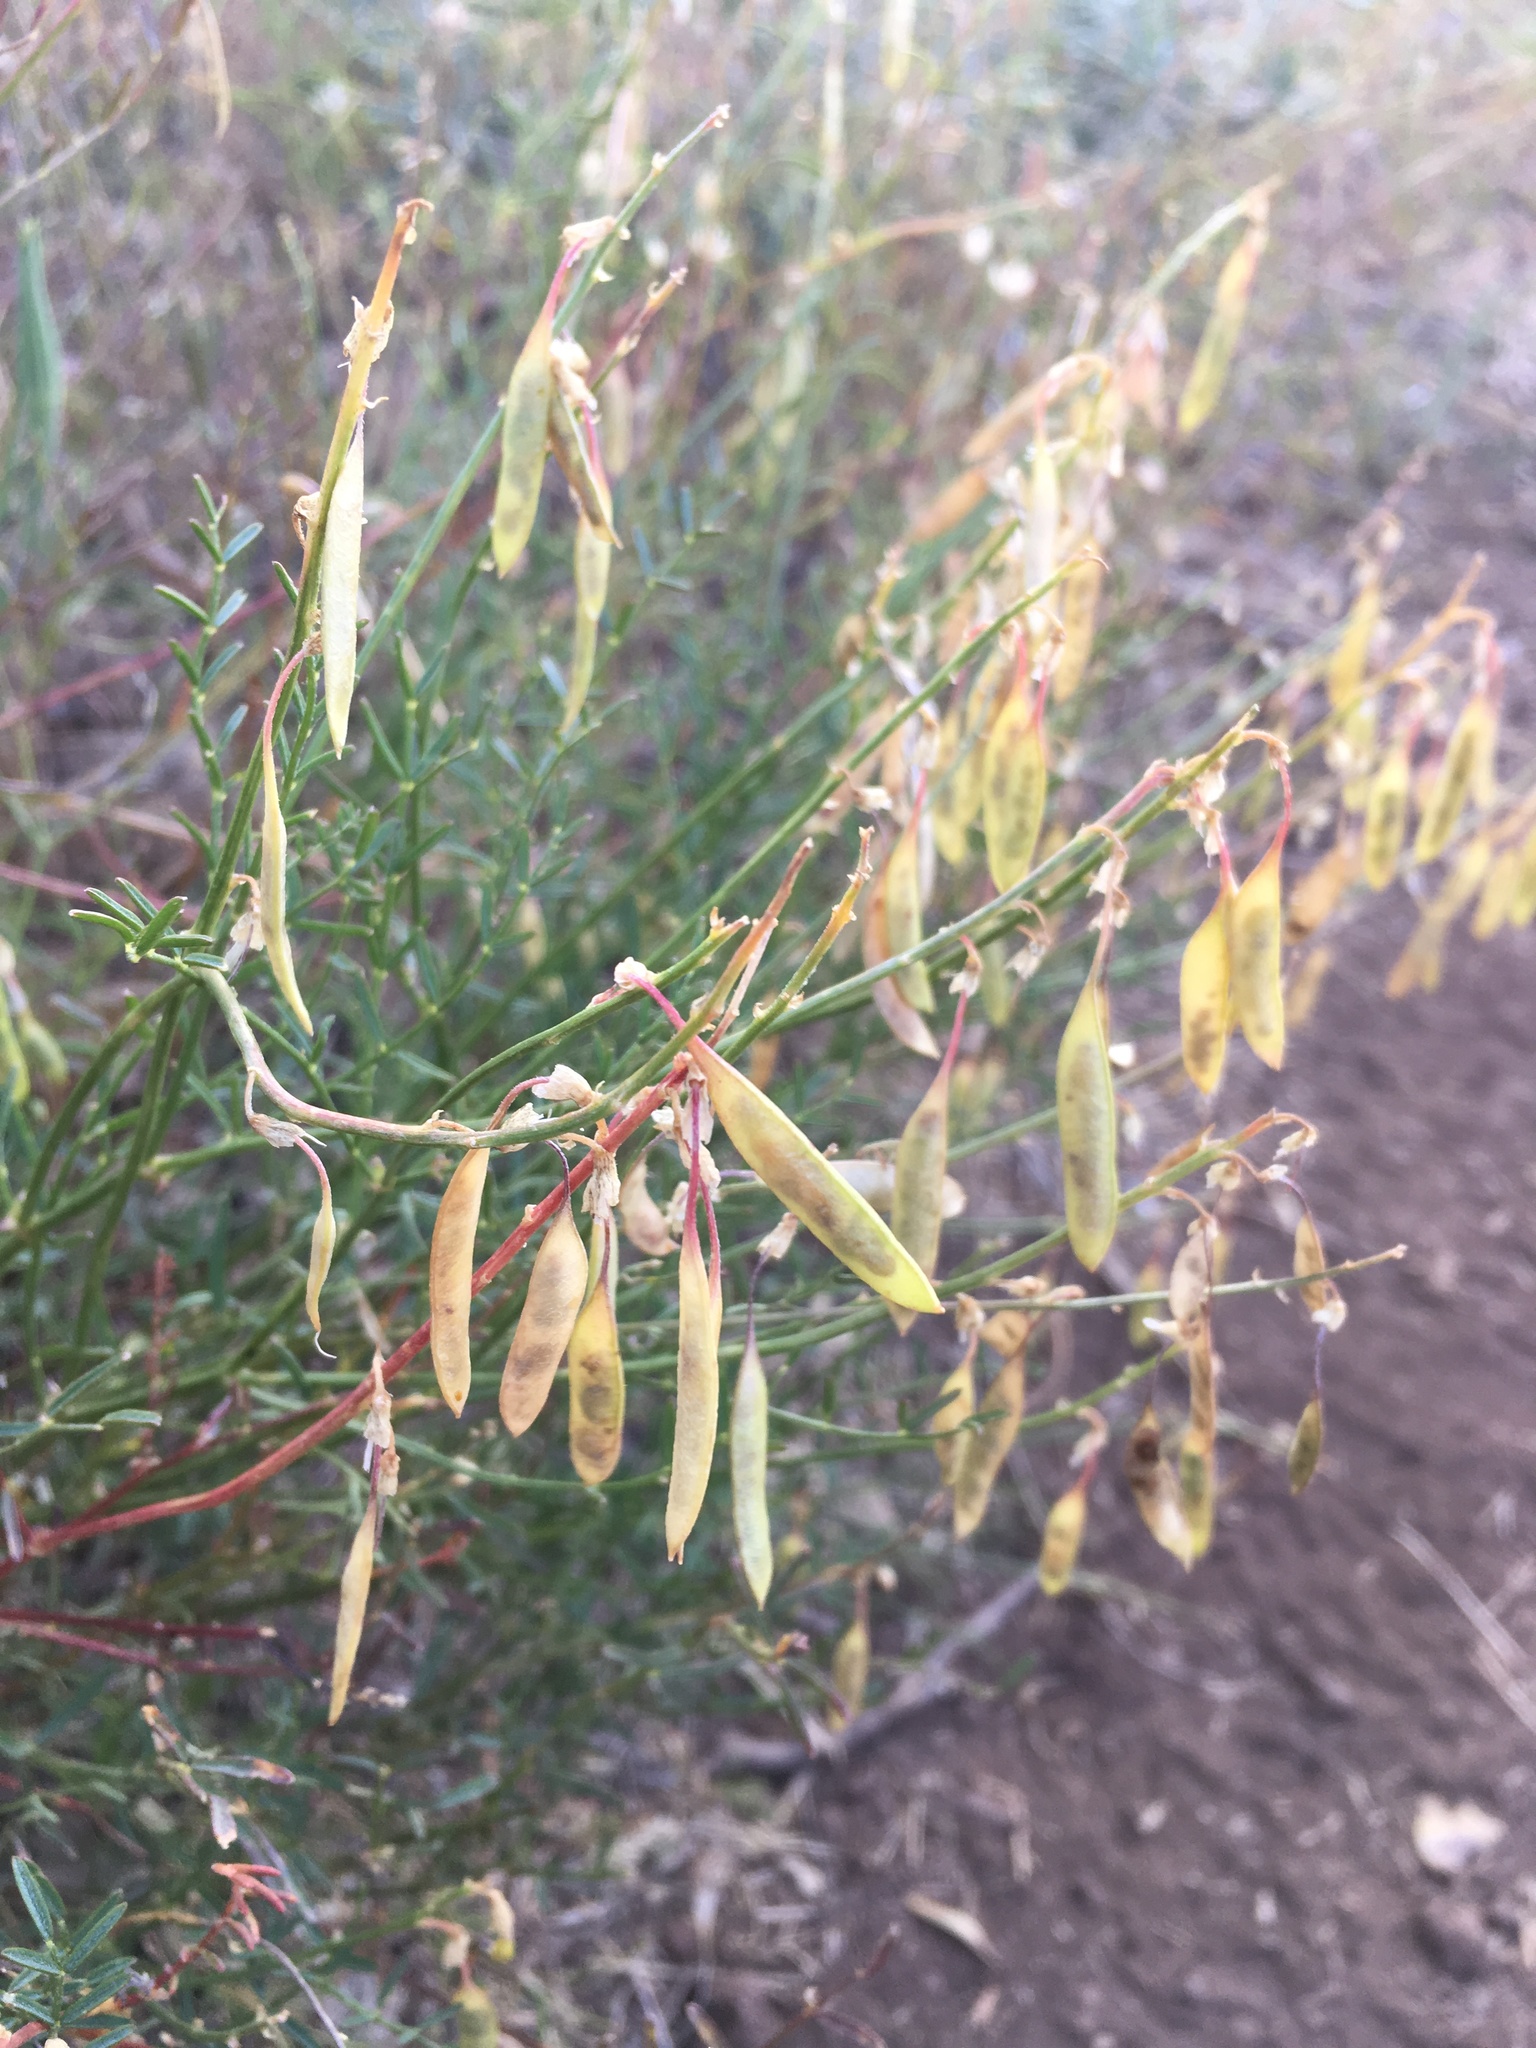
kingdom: Plantae
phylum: Tracheophyta
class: Magnoliopsida
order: Fabales
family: Fabaceae
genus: Astragalus
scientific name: Astragalus filipes
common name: Basalt milk-vetch
